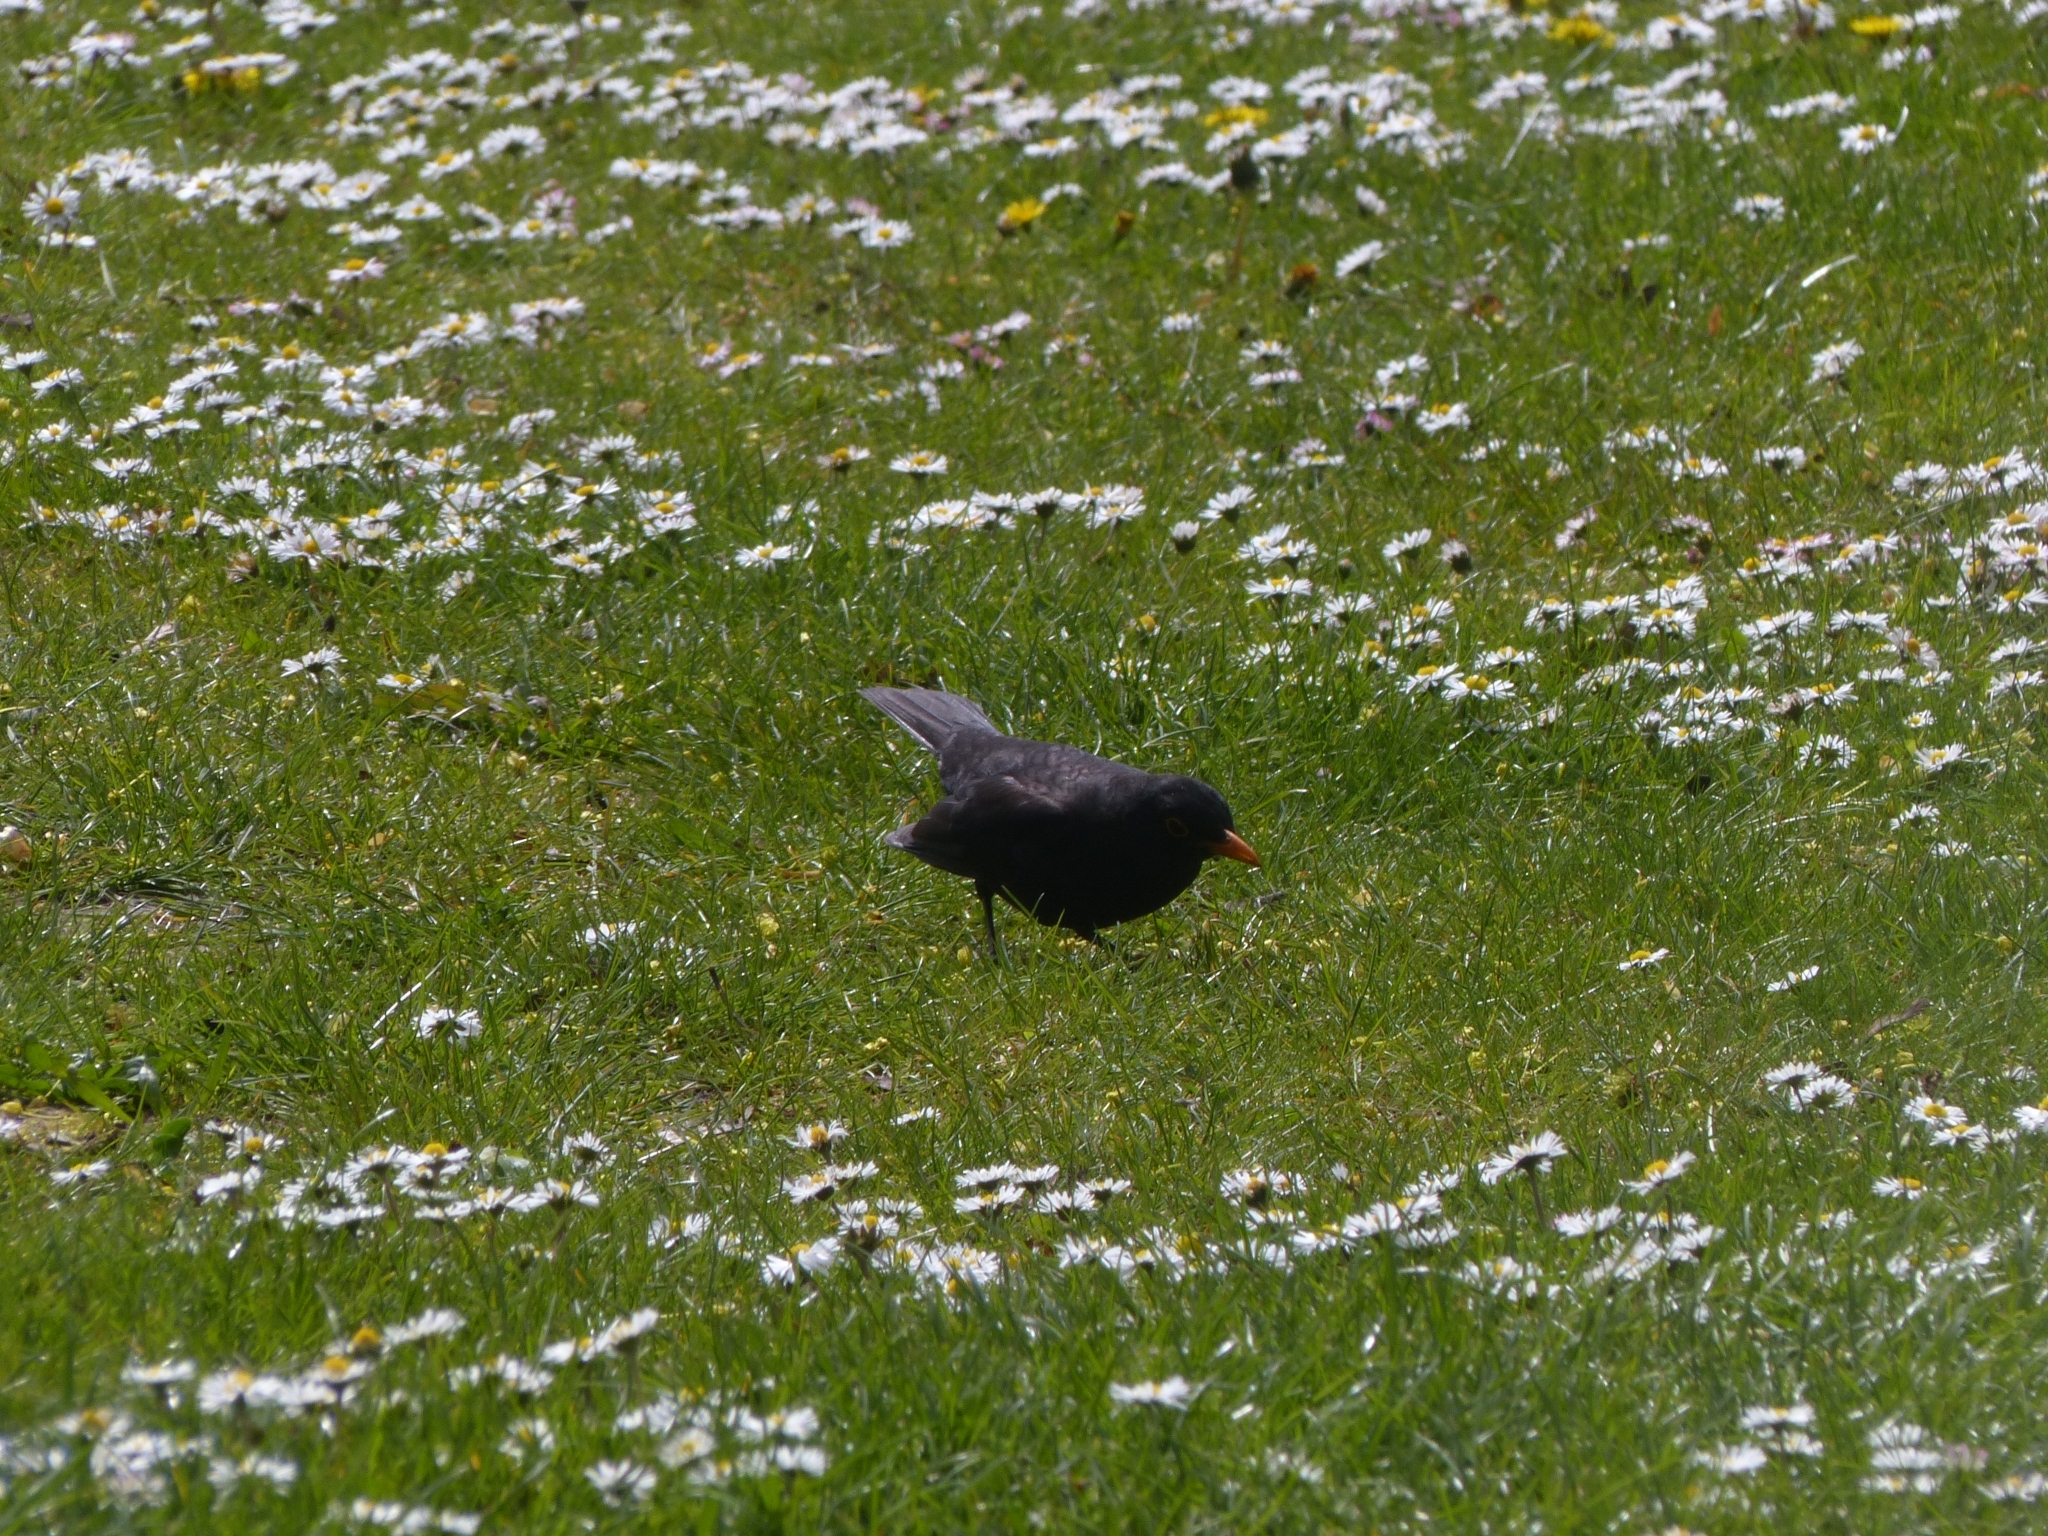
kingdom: Animalia
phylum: Chordata
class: Aves
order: Passeriformes
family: Turdidae
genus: Turdus
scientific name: Turdus merula
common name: Common blackbird
